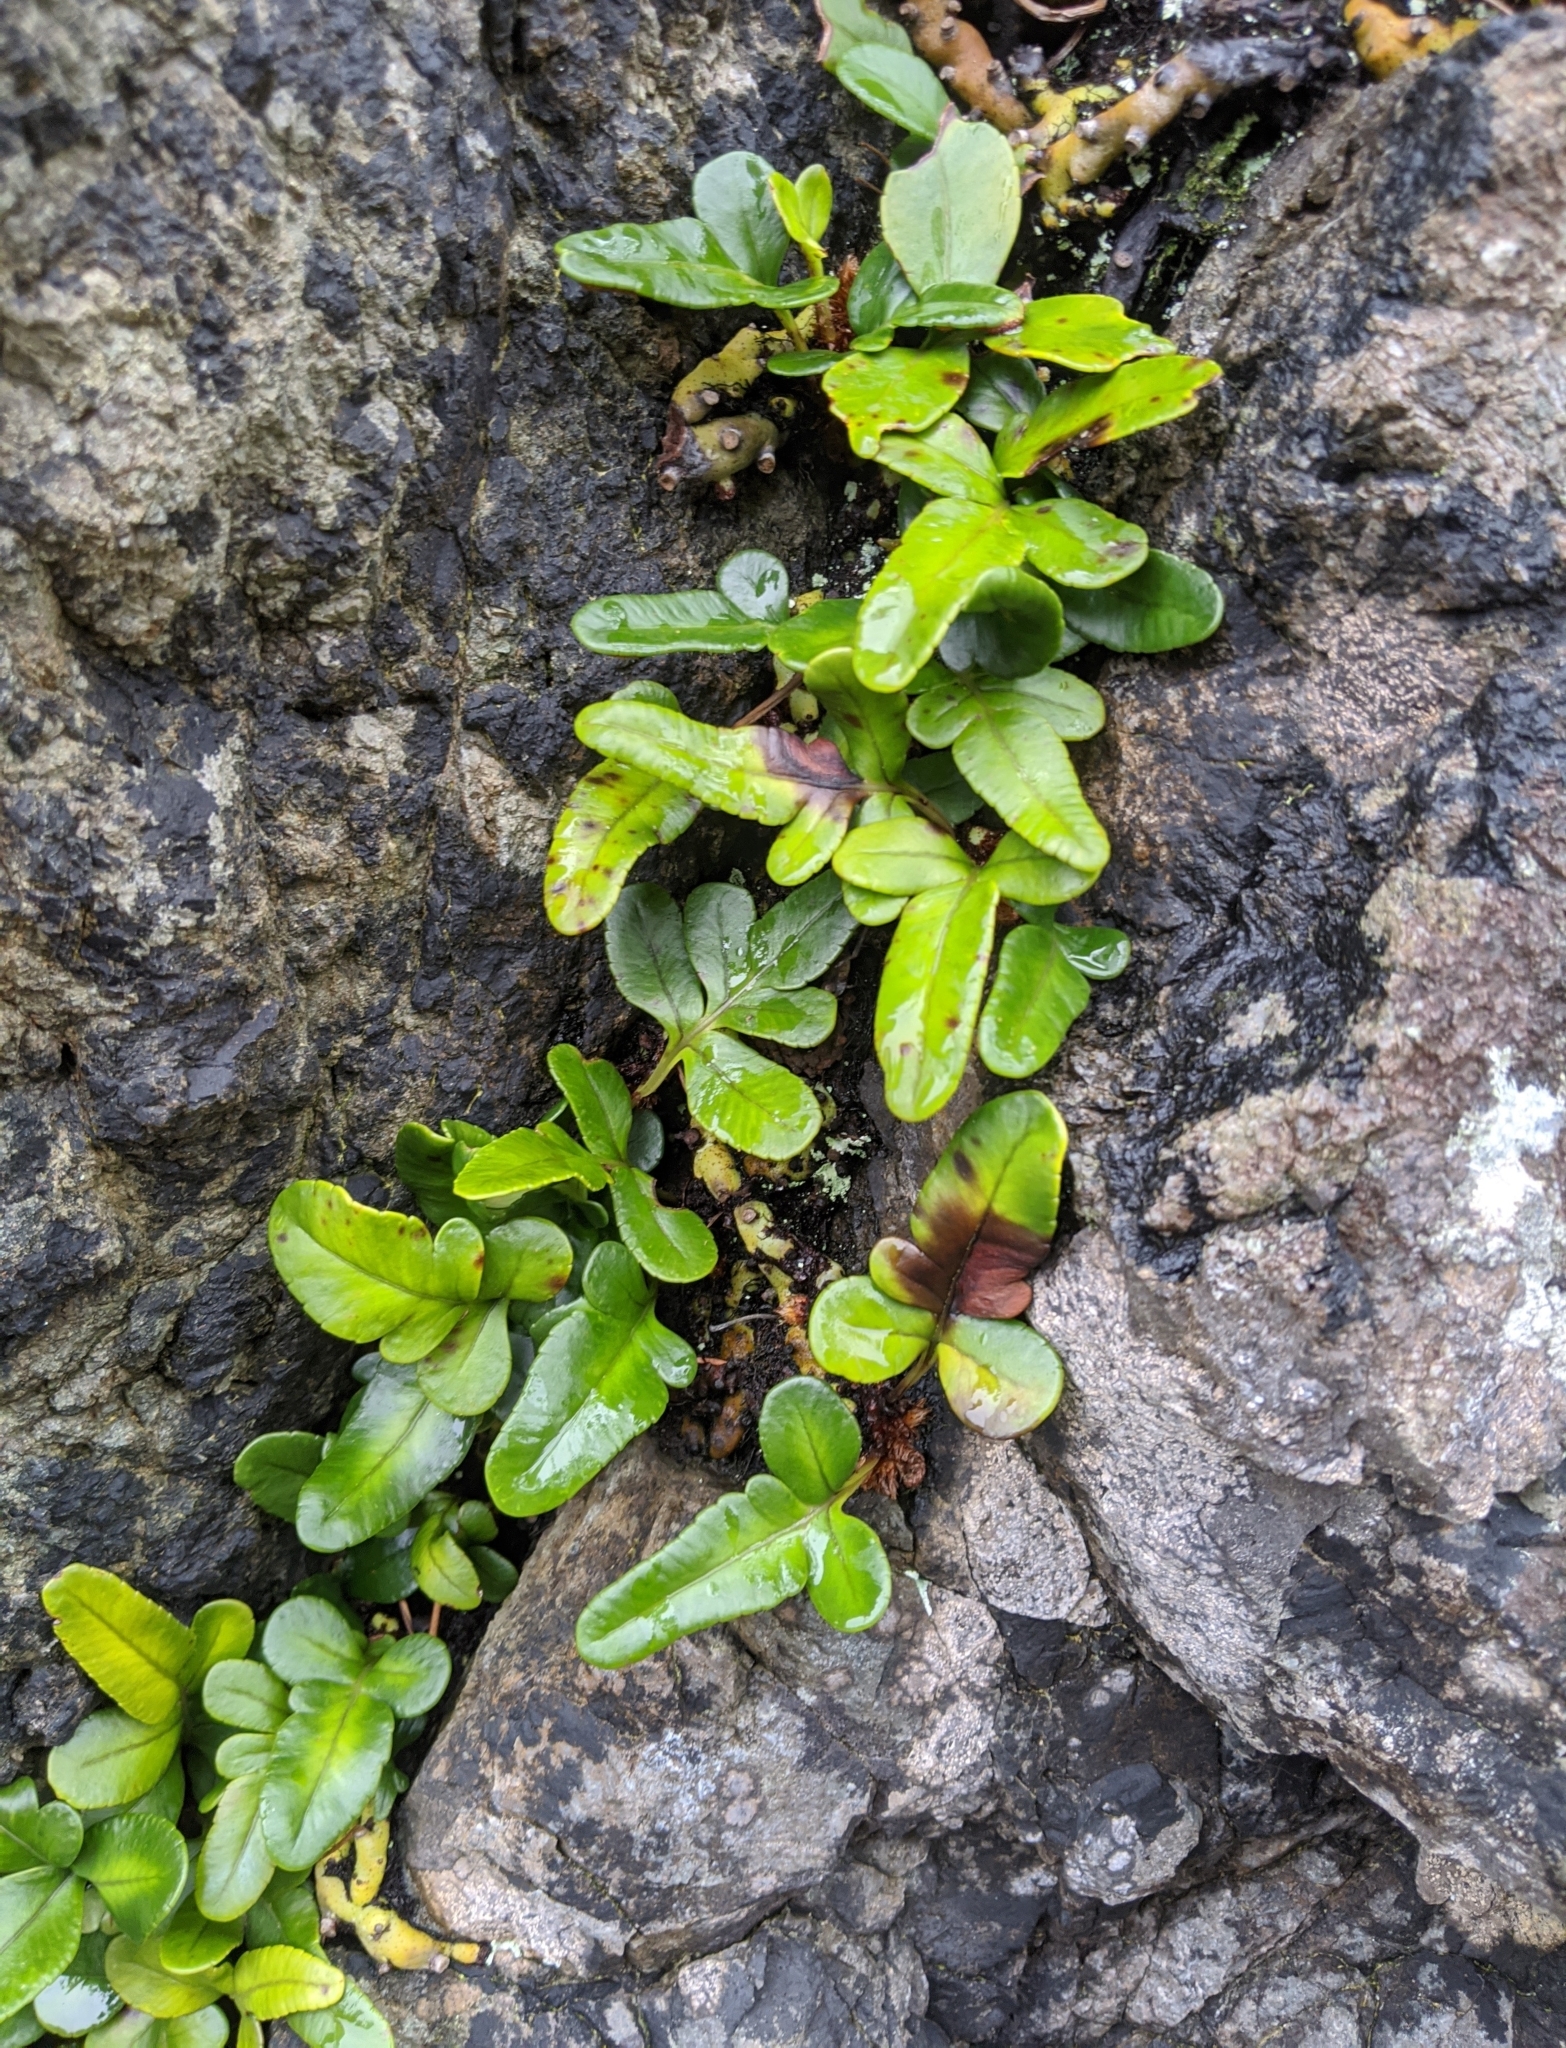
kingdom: Plantae
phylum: Tracheophyta
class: Polypodiopsida
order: Polypodiales
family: Polypodiaceae
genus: Polypodium
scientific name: Polypodium scouleri
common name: Scouler's polypody
